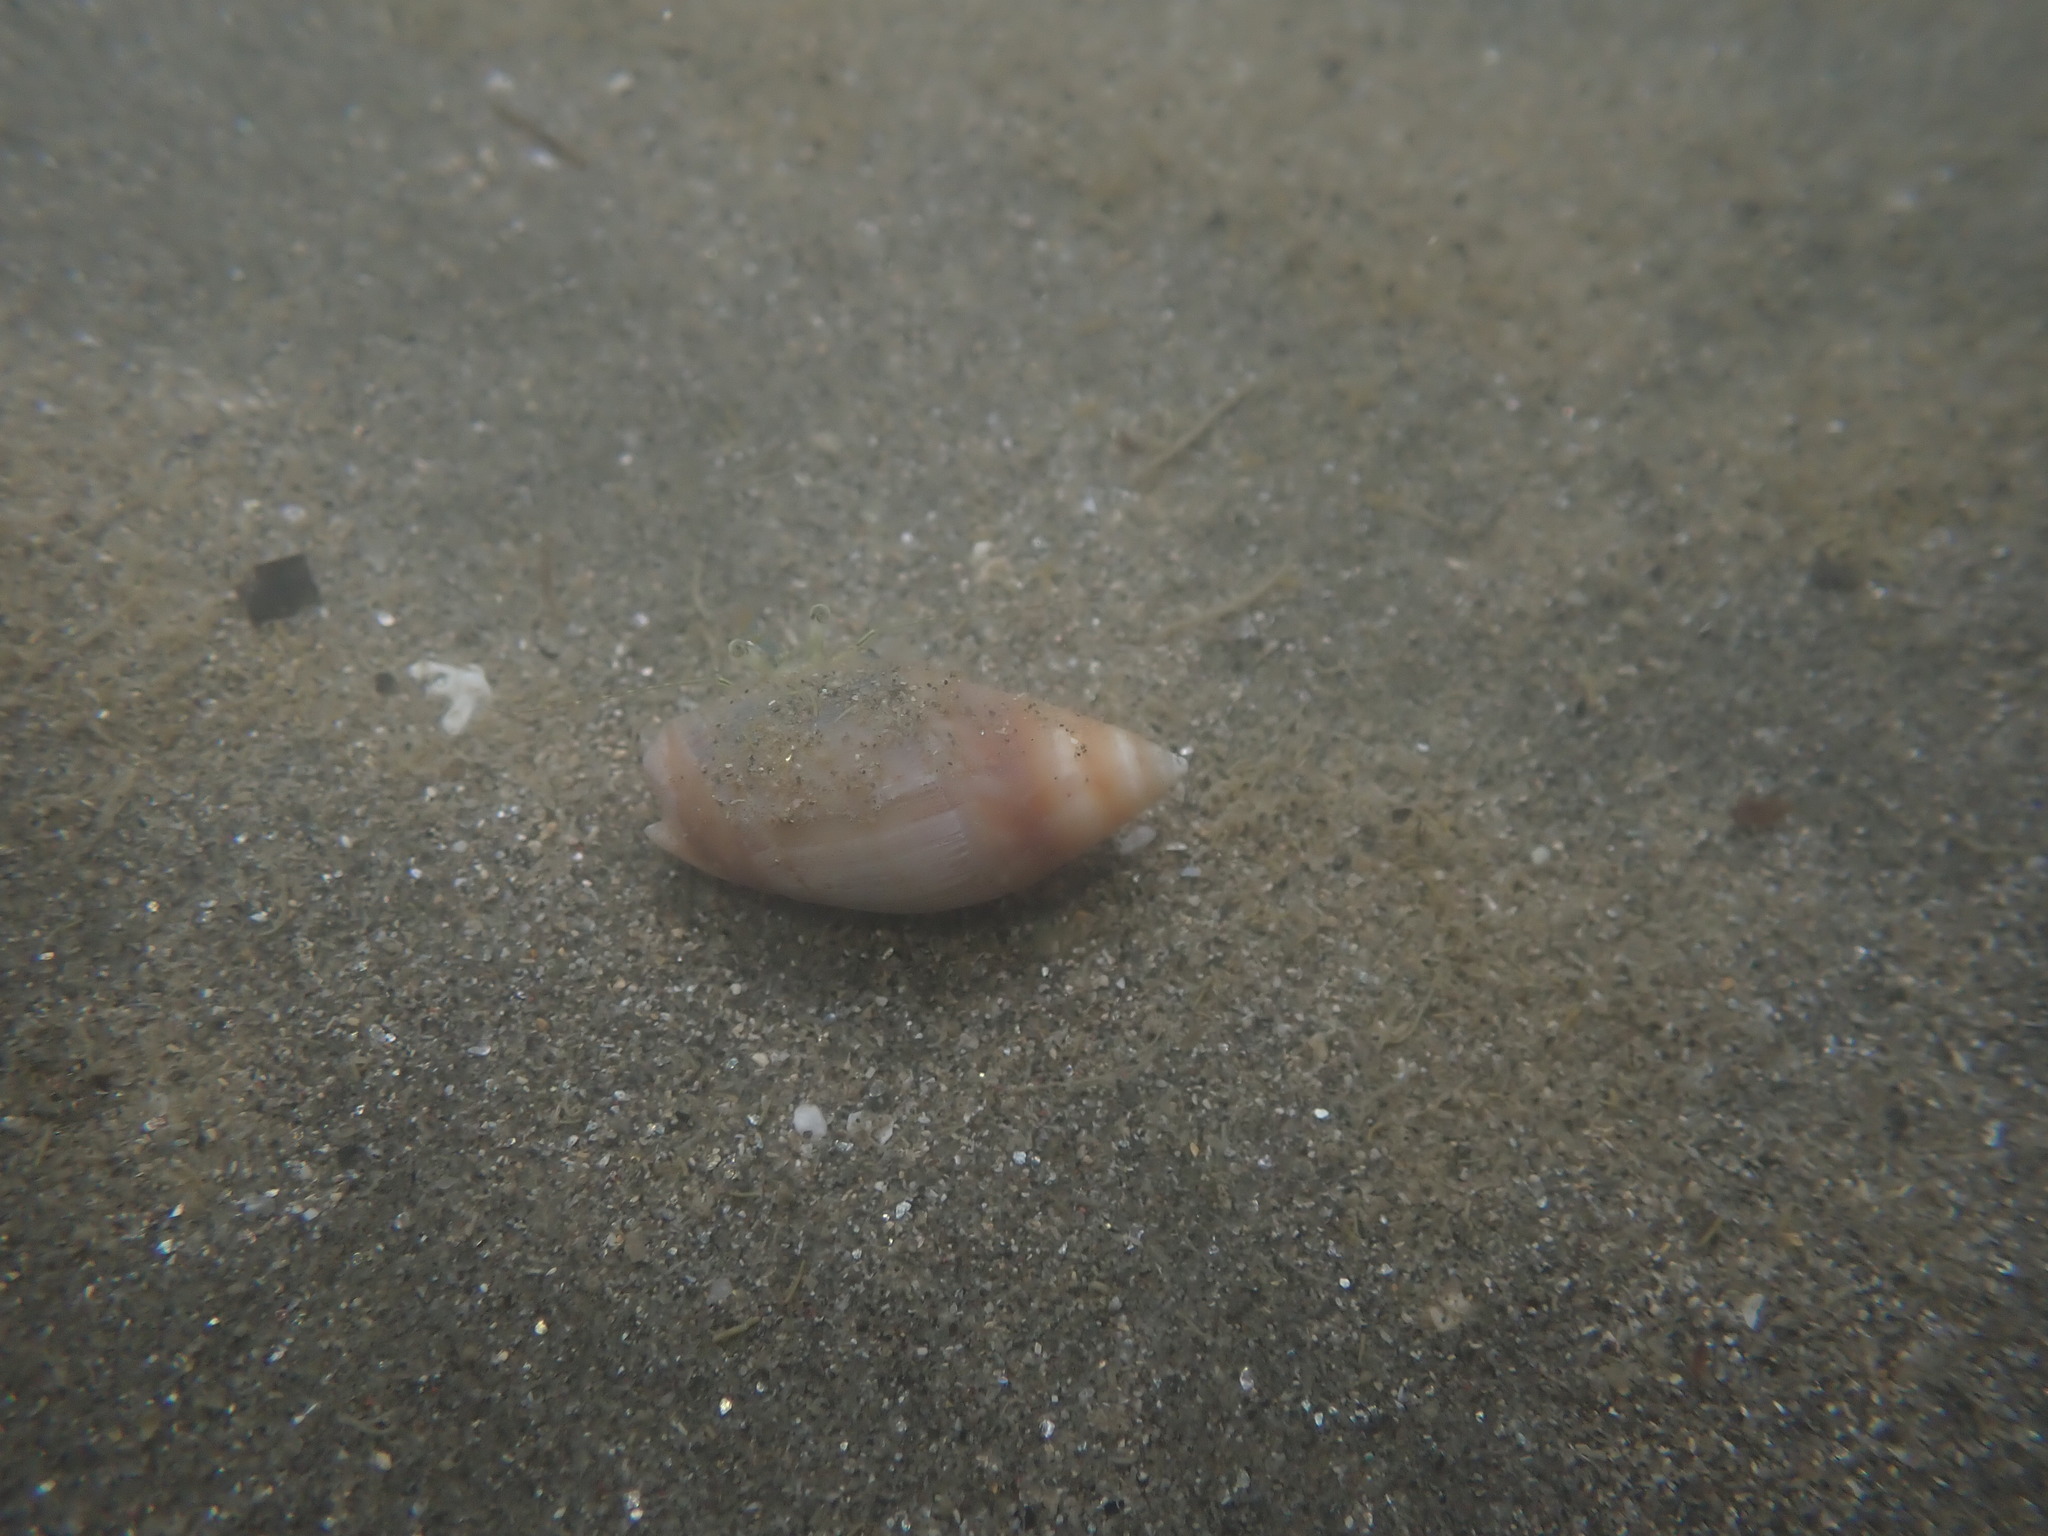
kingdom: Animalia
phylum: Mollusca
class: Gastropoda
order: Neogastropoda
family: Ancillariidae
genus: Amalda
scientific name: Amalda australis
